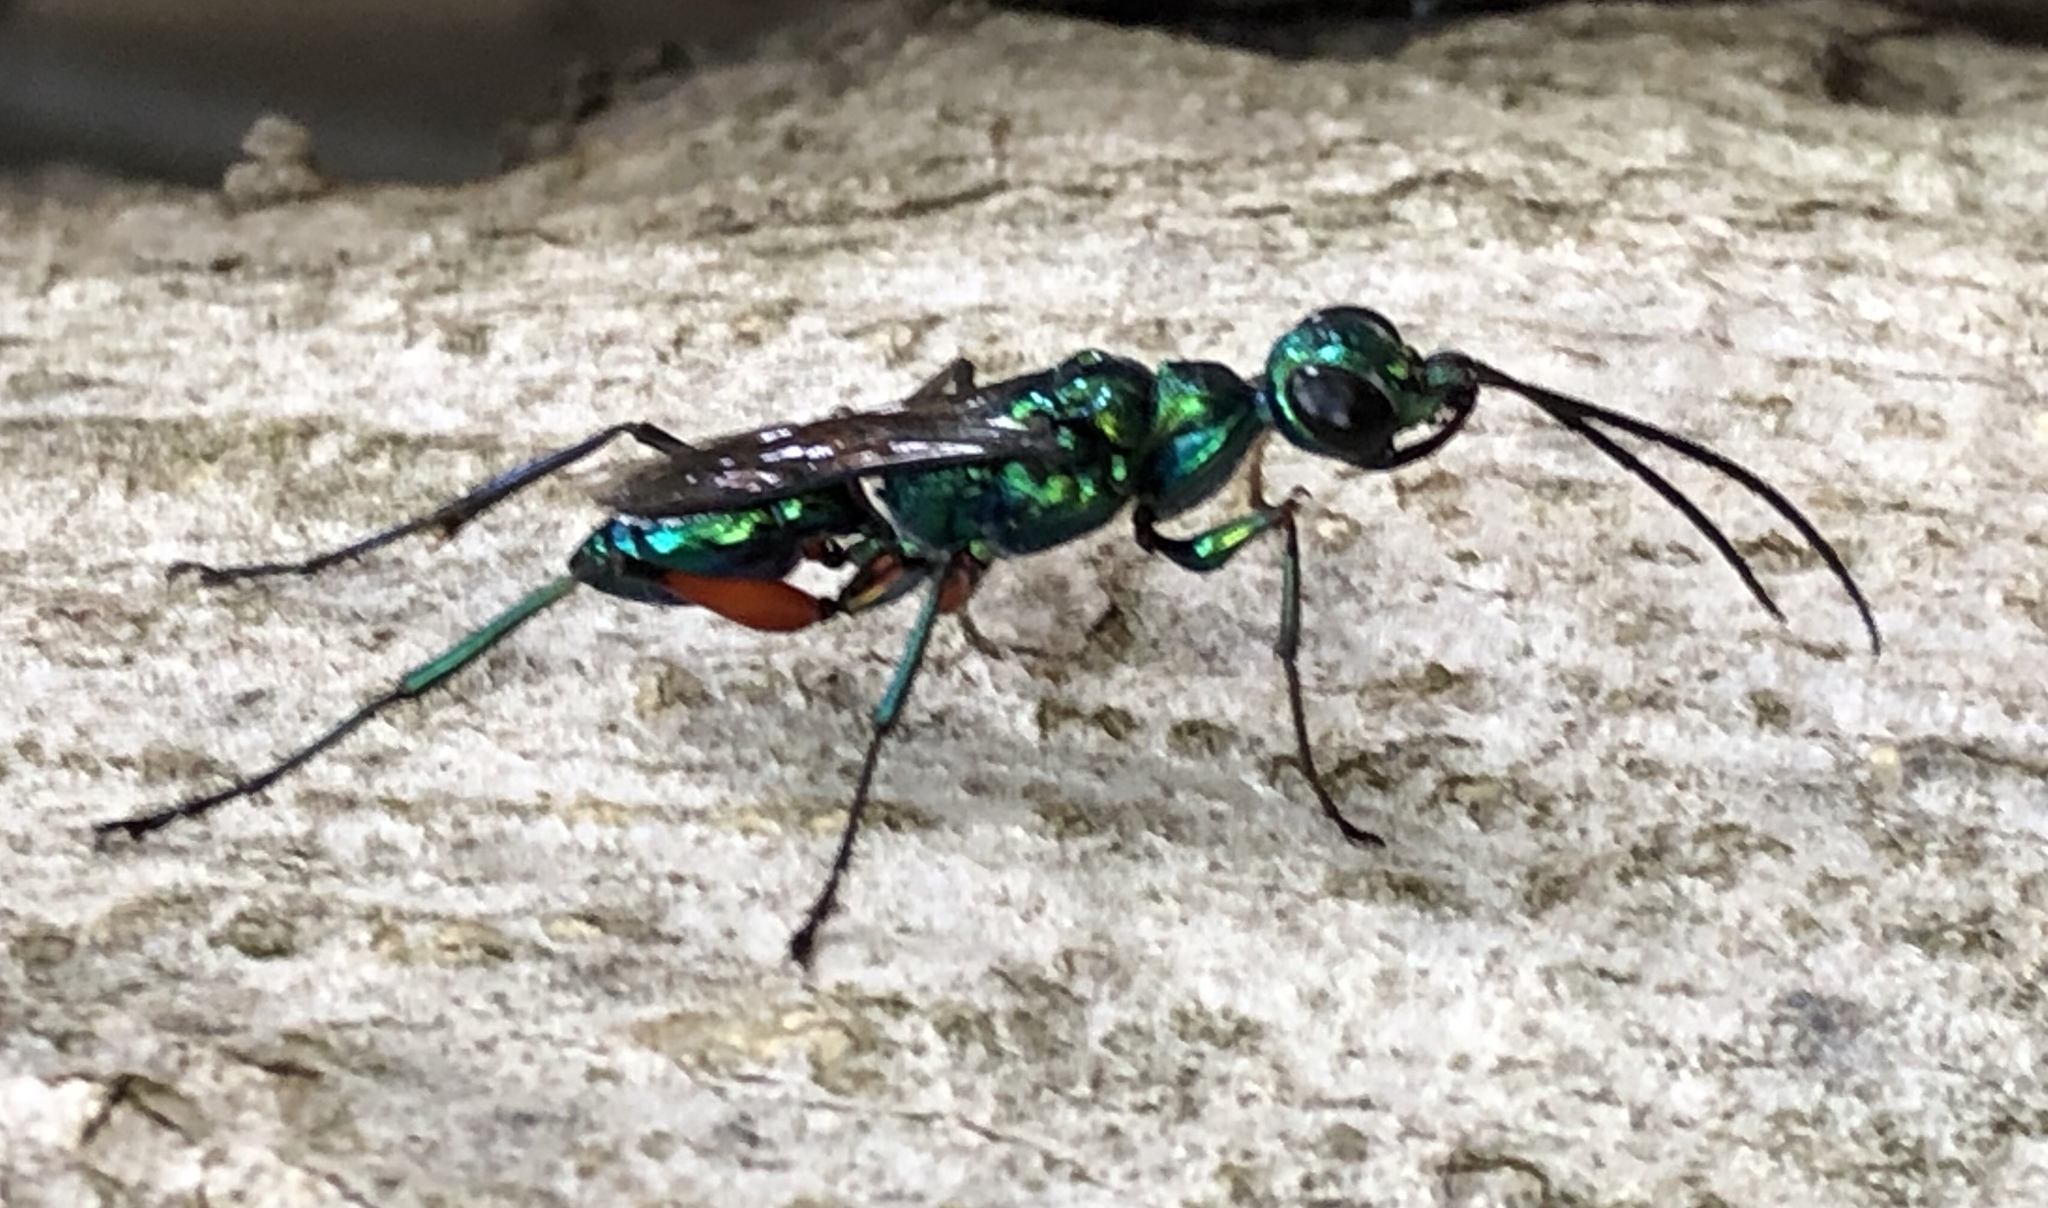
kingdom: Animalia
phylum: Arthropoda
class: Insecta
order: Hymenoptera
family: Ampulicidae
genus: Ampulex
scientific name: Ampulex compressa
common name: Emerald cockroach wasp
